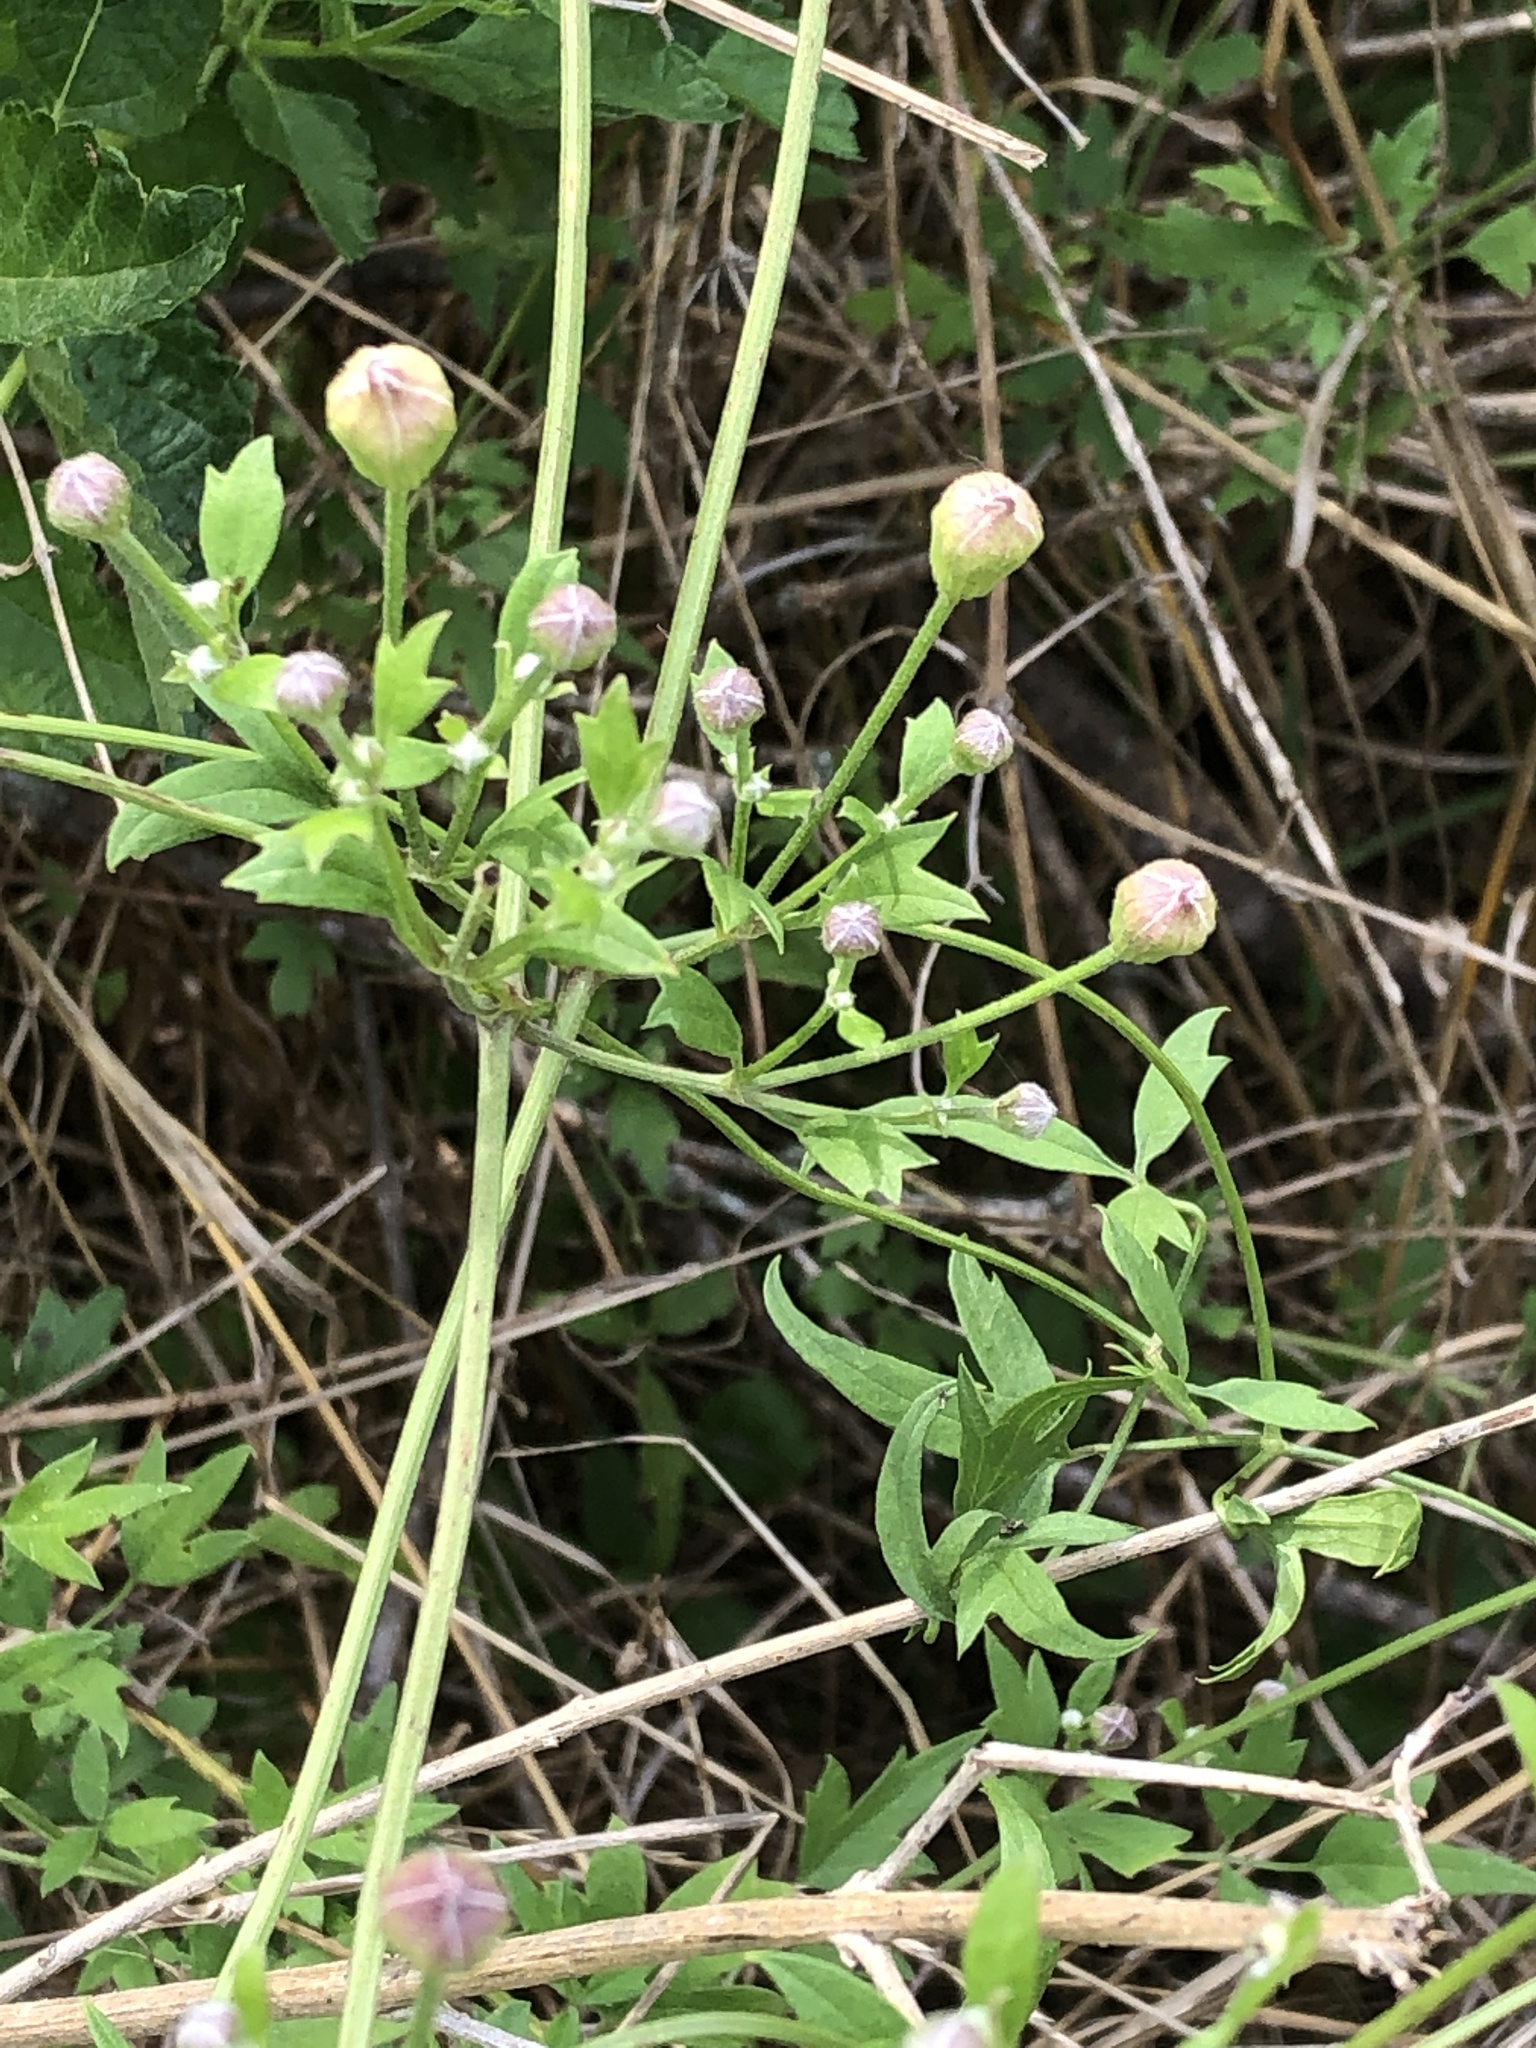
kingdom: Plantae
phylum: Tracheophyta
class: Magnoliopsida
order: Ranunculales
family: Ranunculaceae
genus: Clematis
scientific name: Clematis drummondii
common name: Texas virgin's bower
